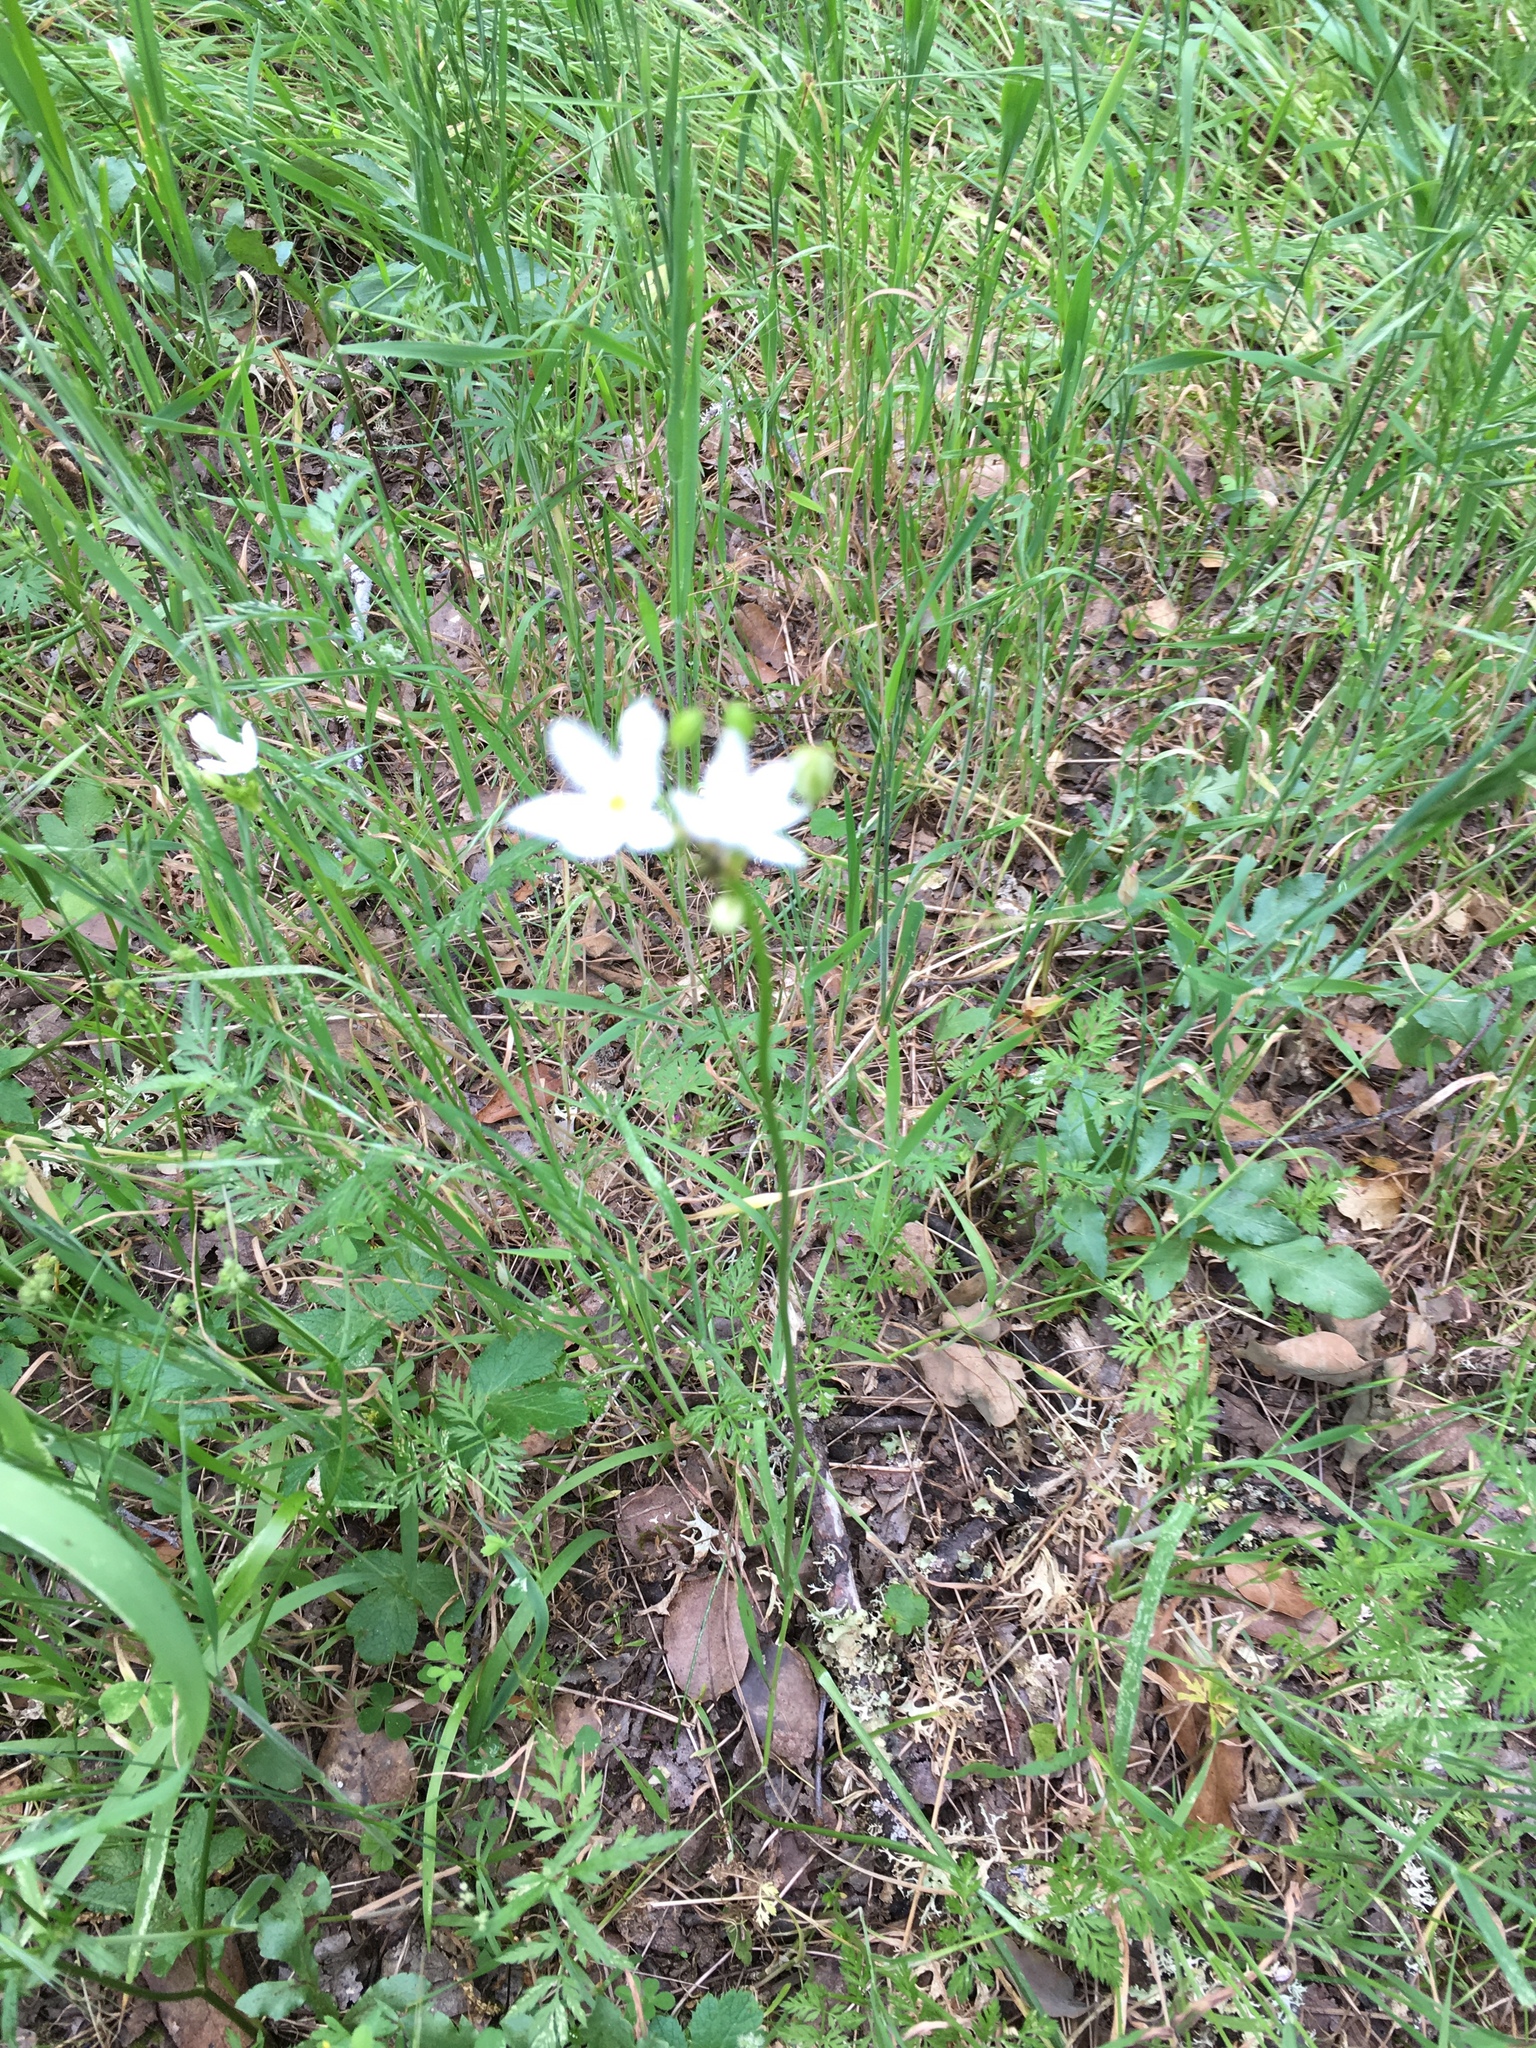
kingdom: Plantae
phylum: Tracheophyta
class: Liliopsida
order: Asparagales
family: Asparagaceae
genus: Triteleia
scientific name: Triteleia hyacinthina
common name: White brodiaea
